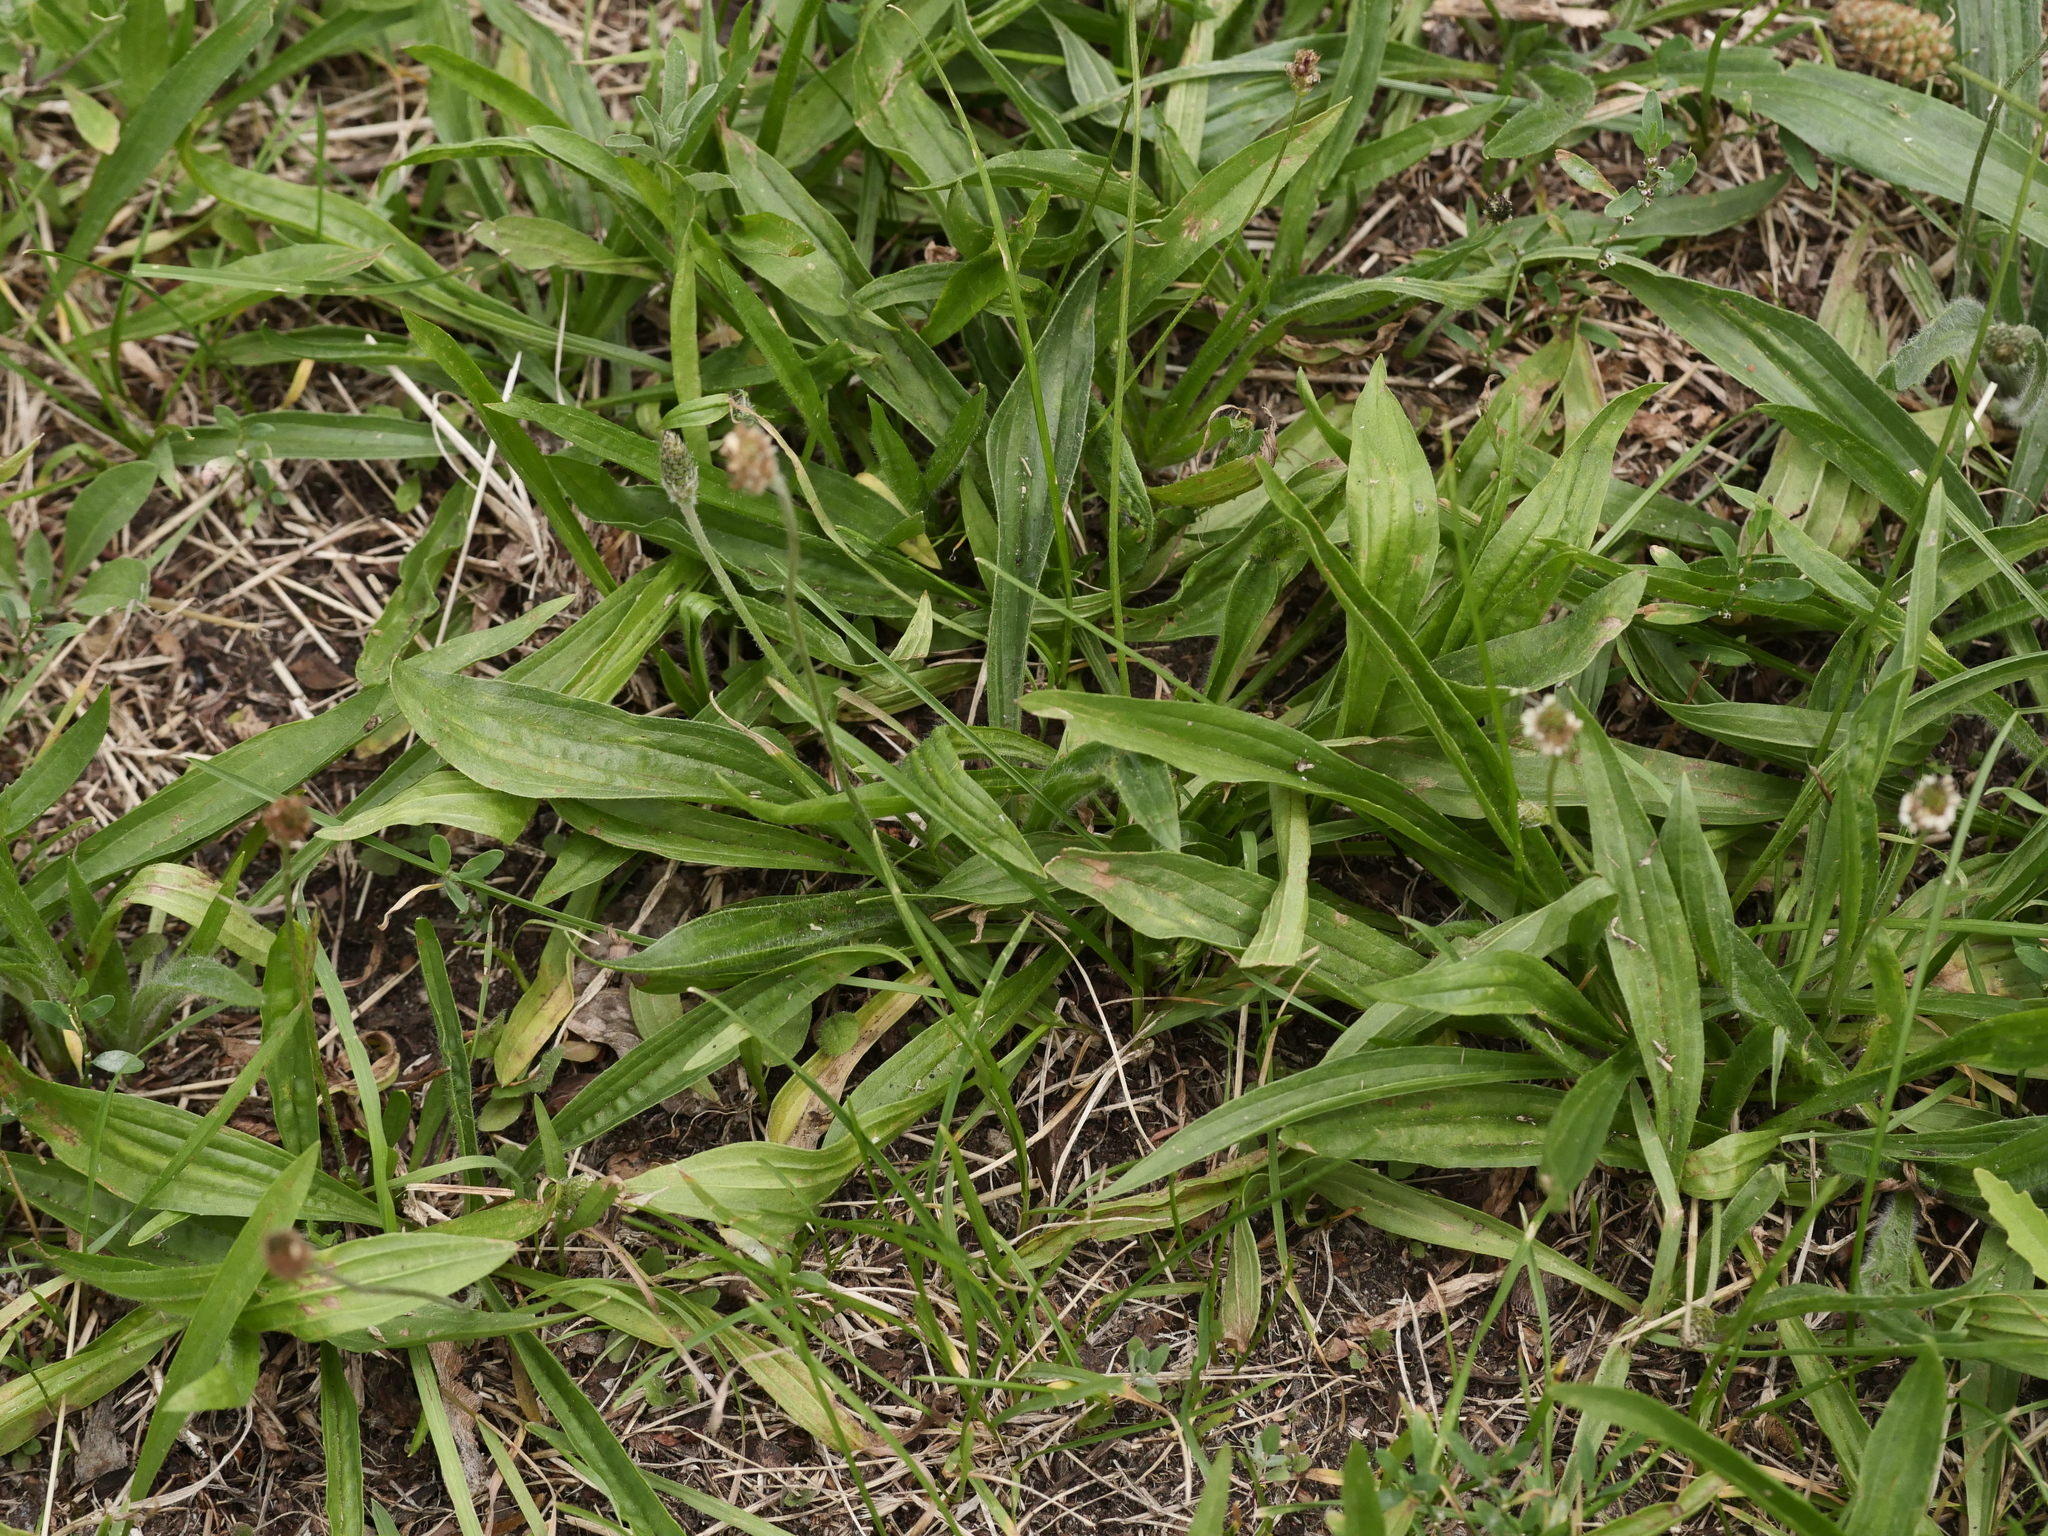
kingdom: Plantae
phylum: Tracheophyta
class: Magnoliopsida
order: Lamiales
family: Plantaginaceae
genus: Plantago
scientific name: Plantago lanceolata
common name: Ribwort plantain
